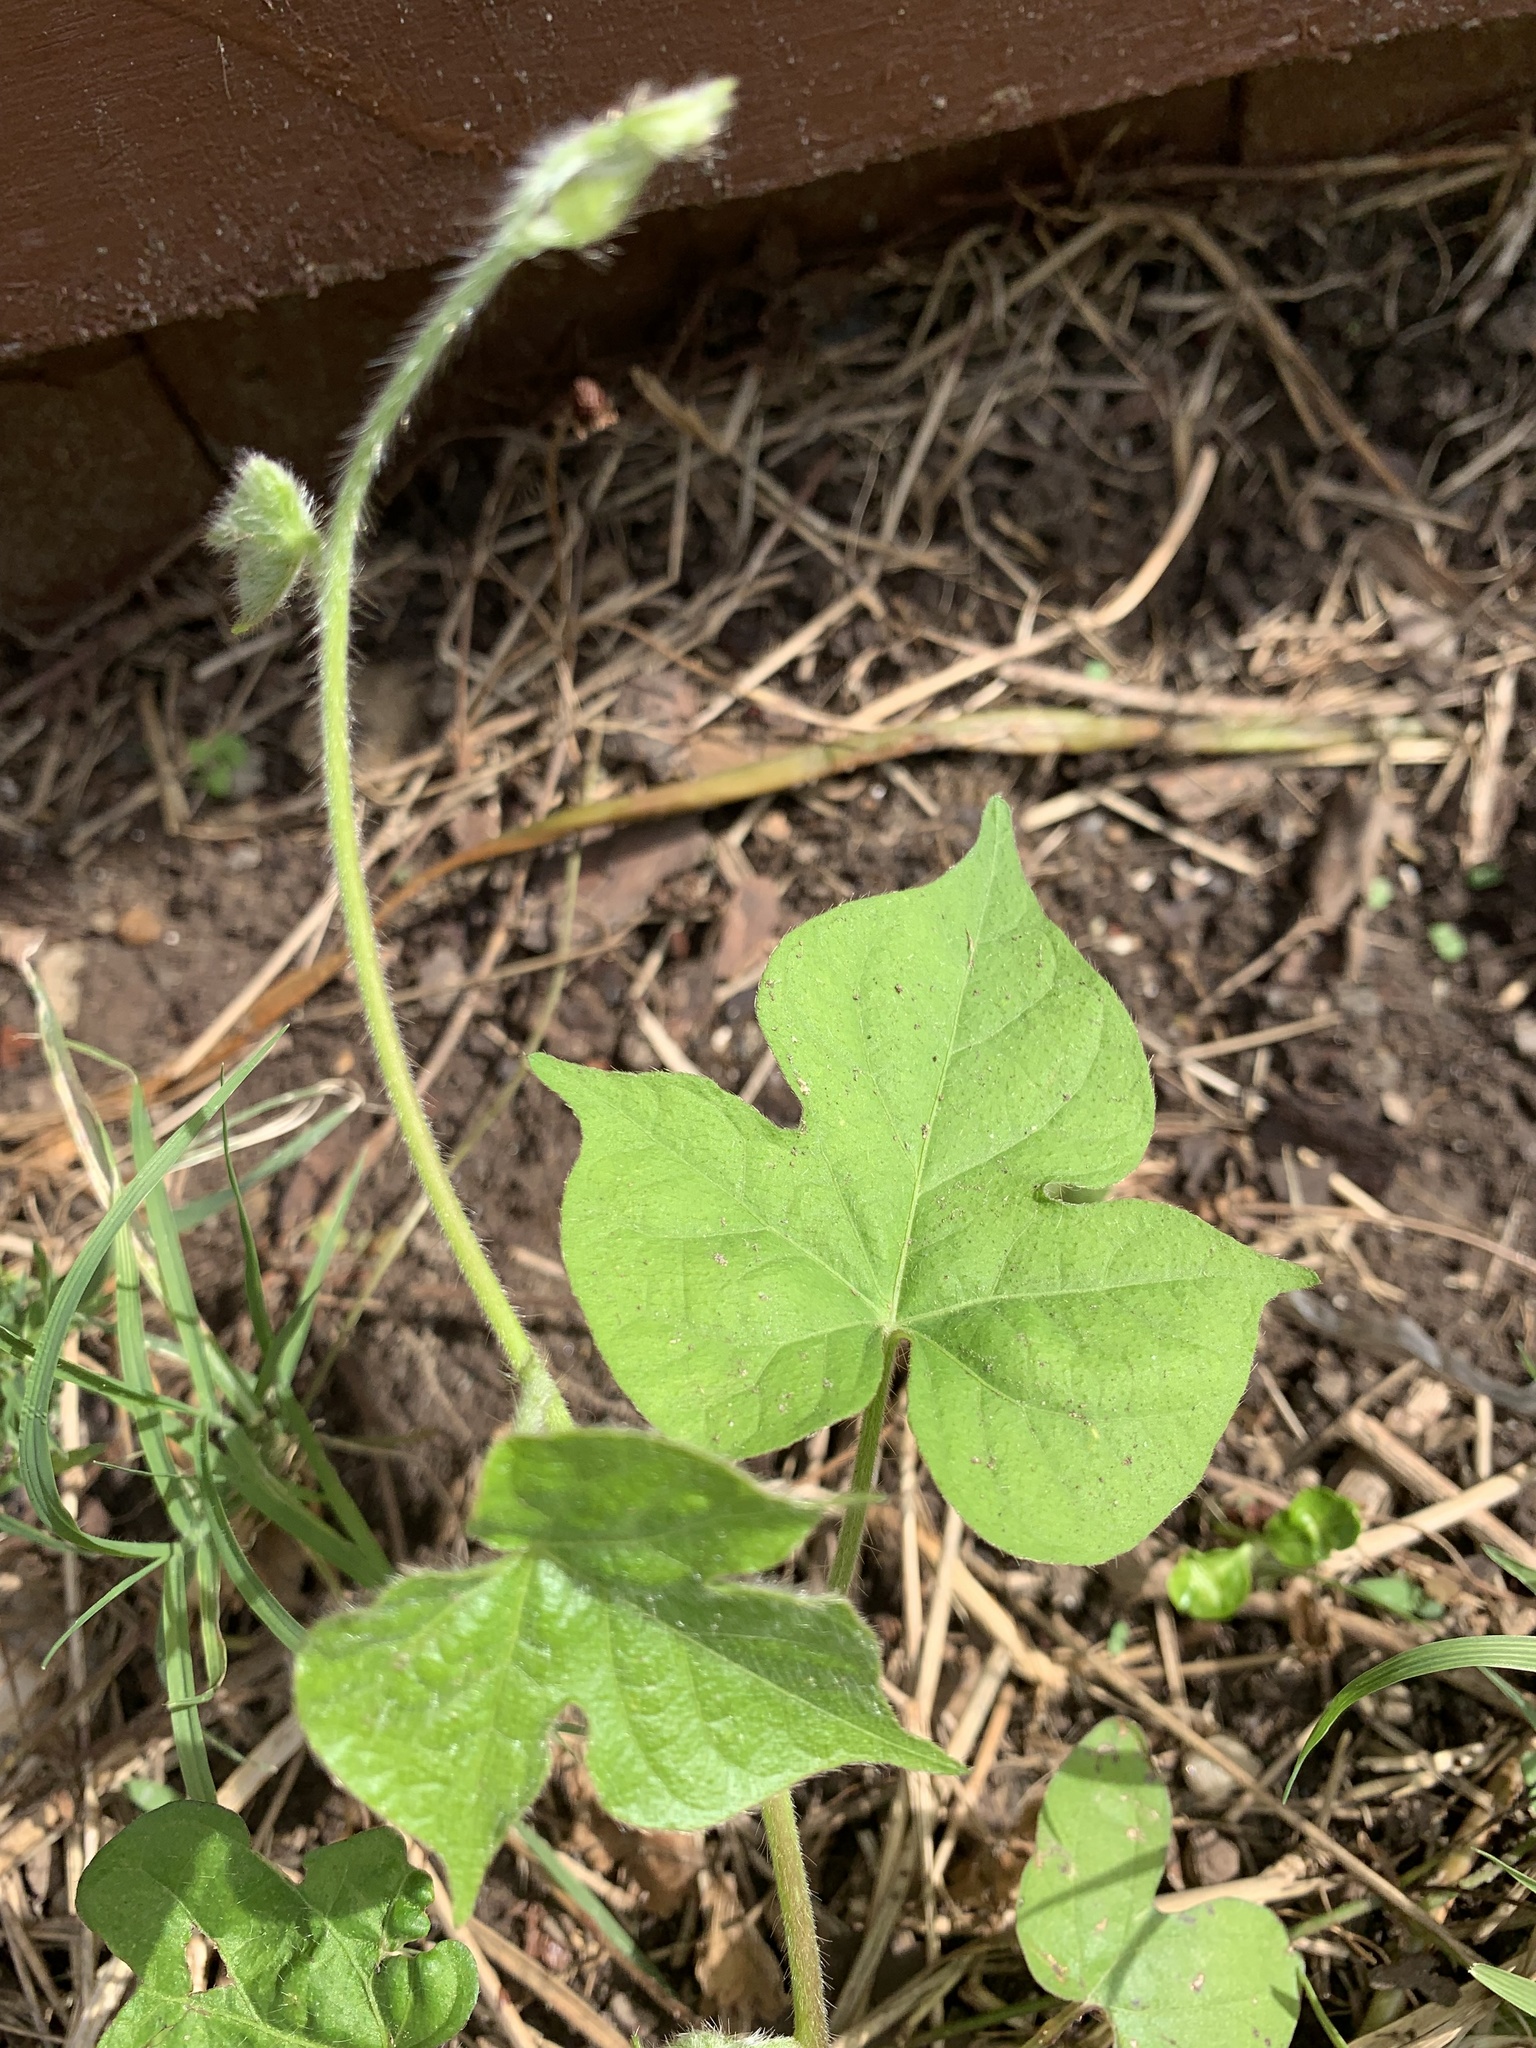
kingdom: Plantae
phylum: Tracheophyta
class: Magnoliopsida
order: Solanales
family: Convolvulaceae
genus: Ipomoea
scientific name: Ipomoea hederacea
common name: Ivy-leaved morning-glory
